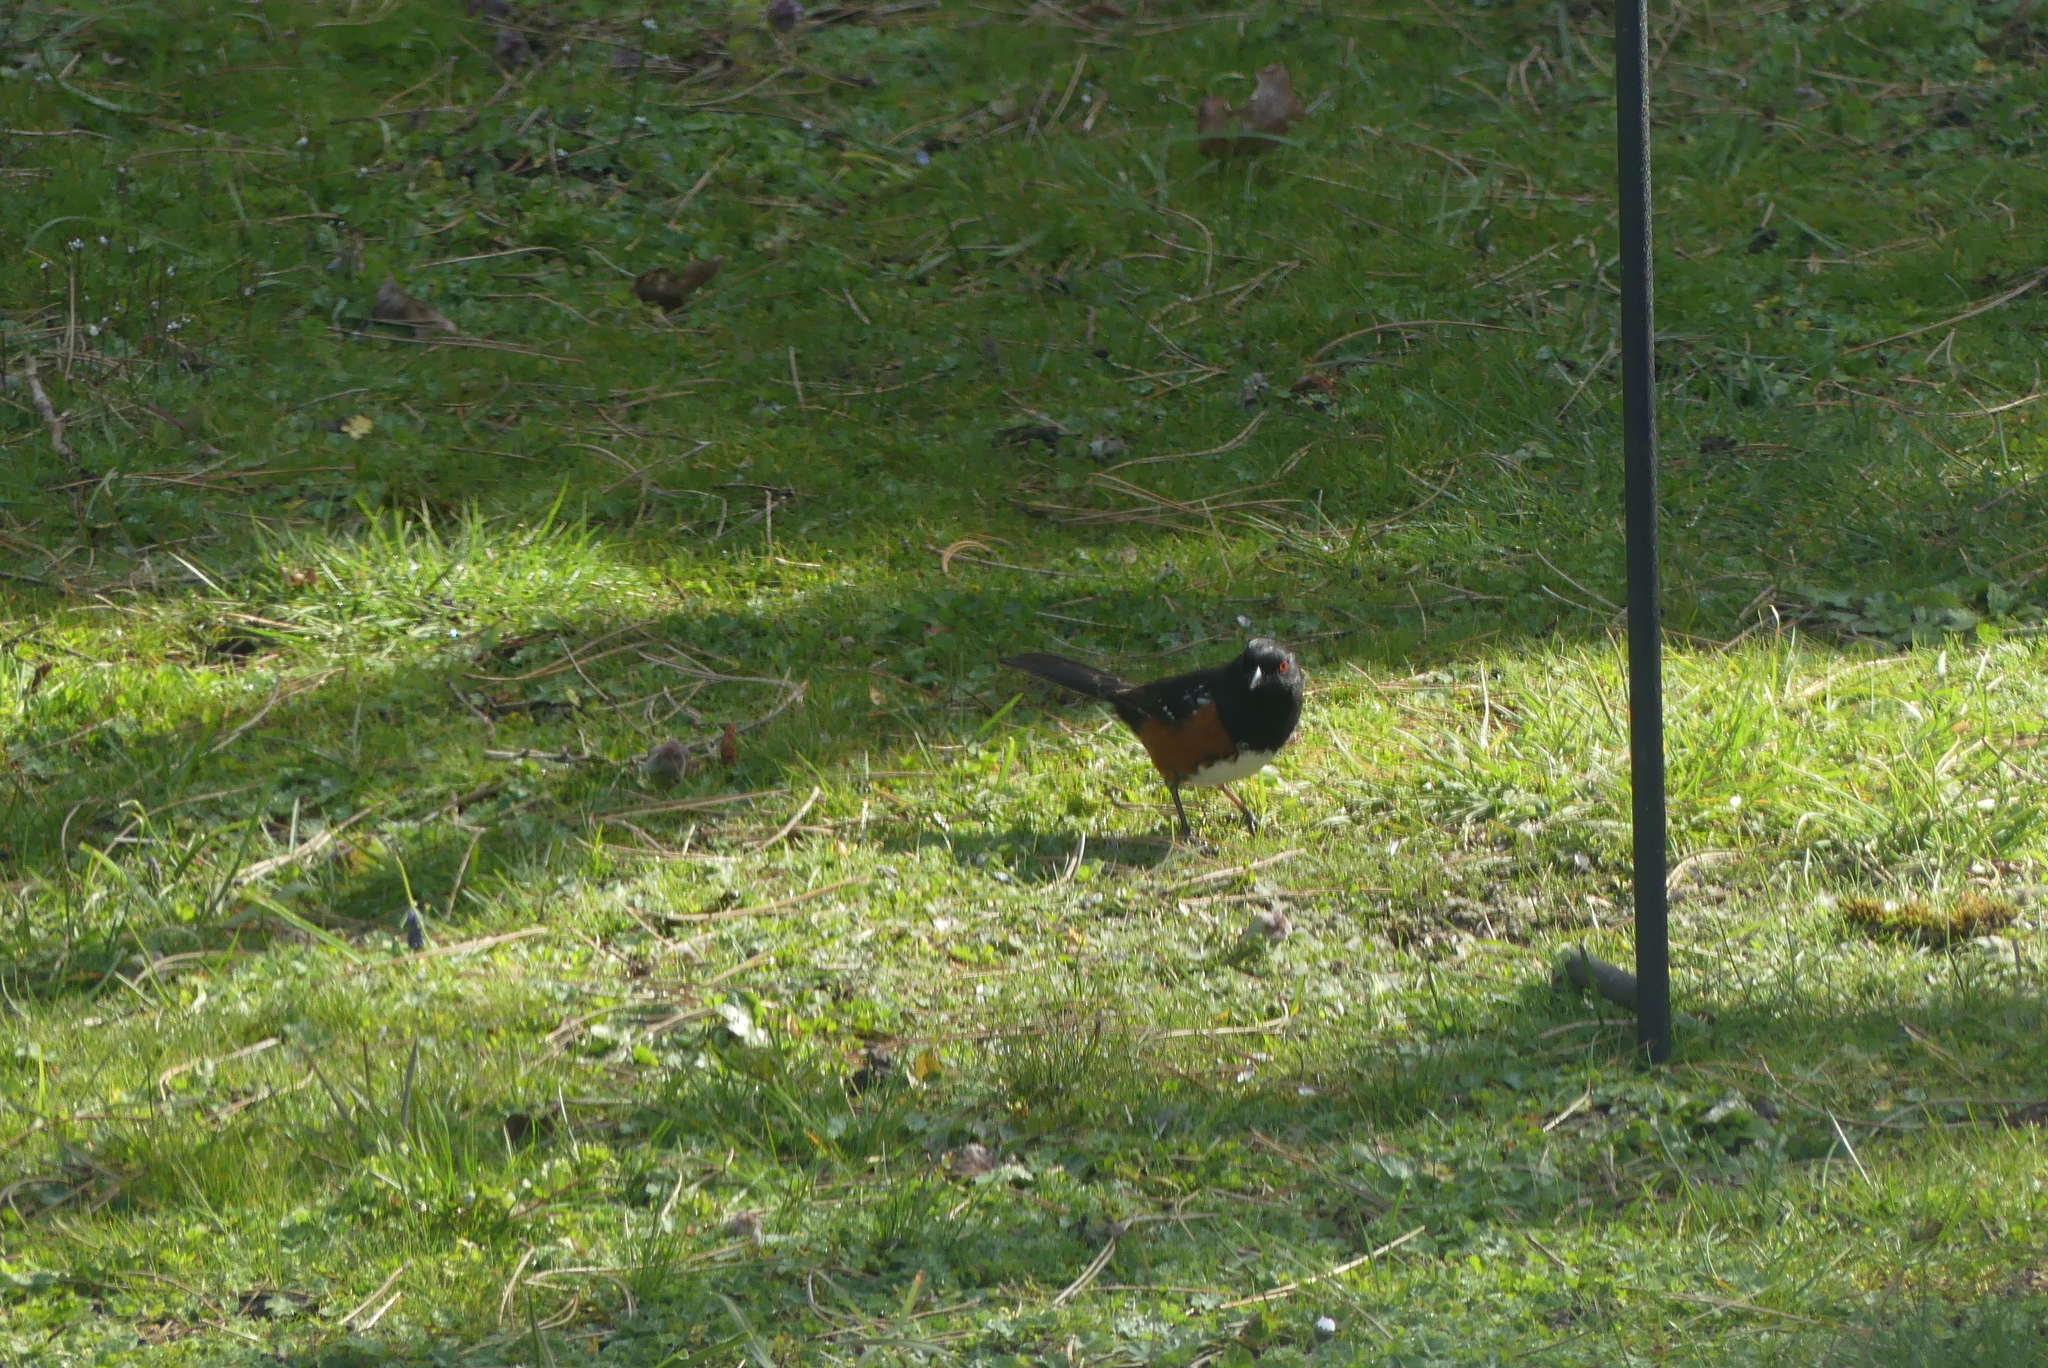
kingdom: Animalia
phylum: Chordata
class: Aves
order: Passeriformes
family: Passerellidae
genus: Pipilo
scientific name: Pipilo maculatus
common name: Spotted towhee
